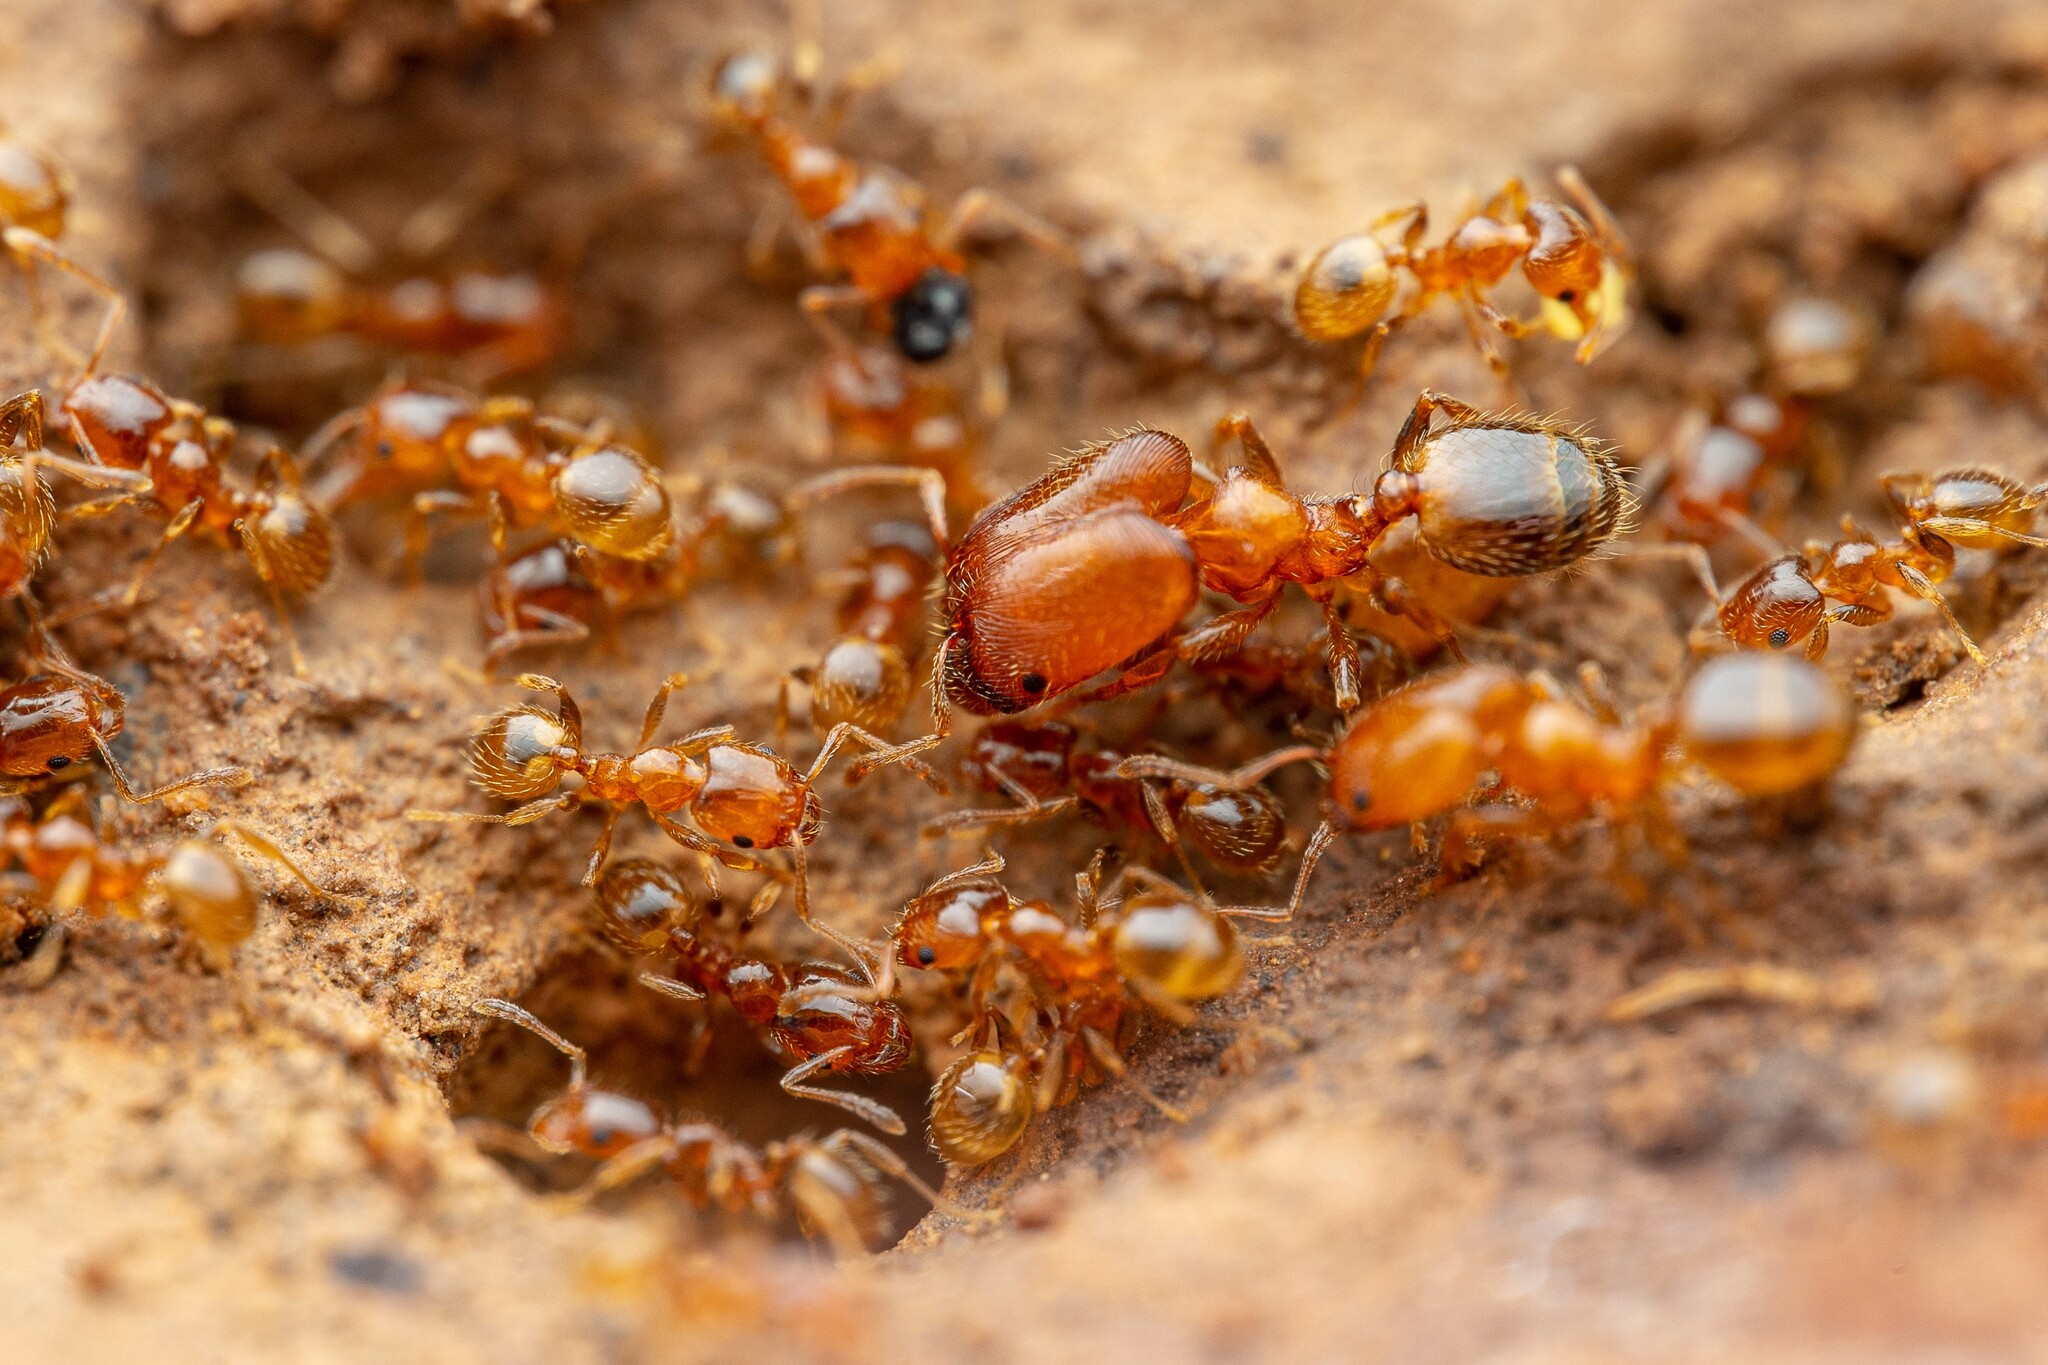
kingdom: Animalia
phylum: Arthropoda
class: Insecta
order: Hymenoptera
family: Formicidae
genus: Pheidole
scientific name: Pheidole
